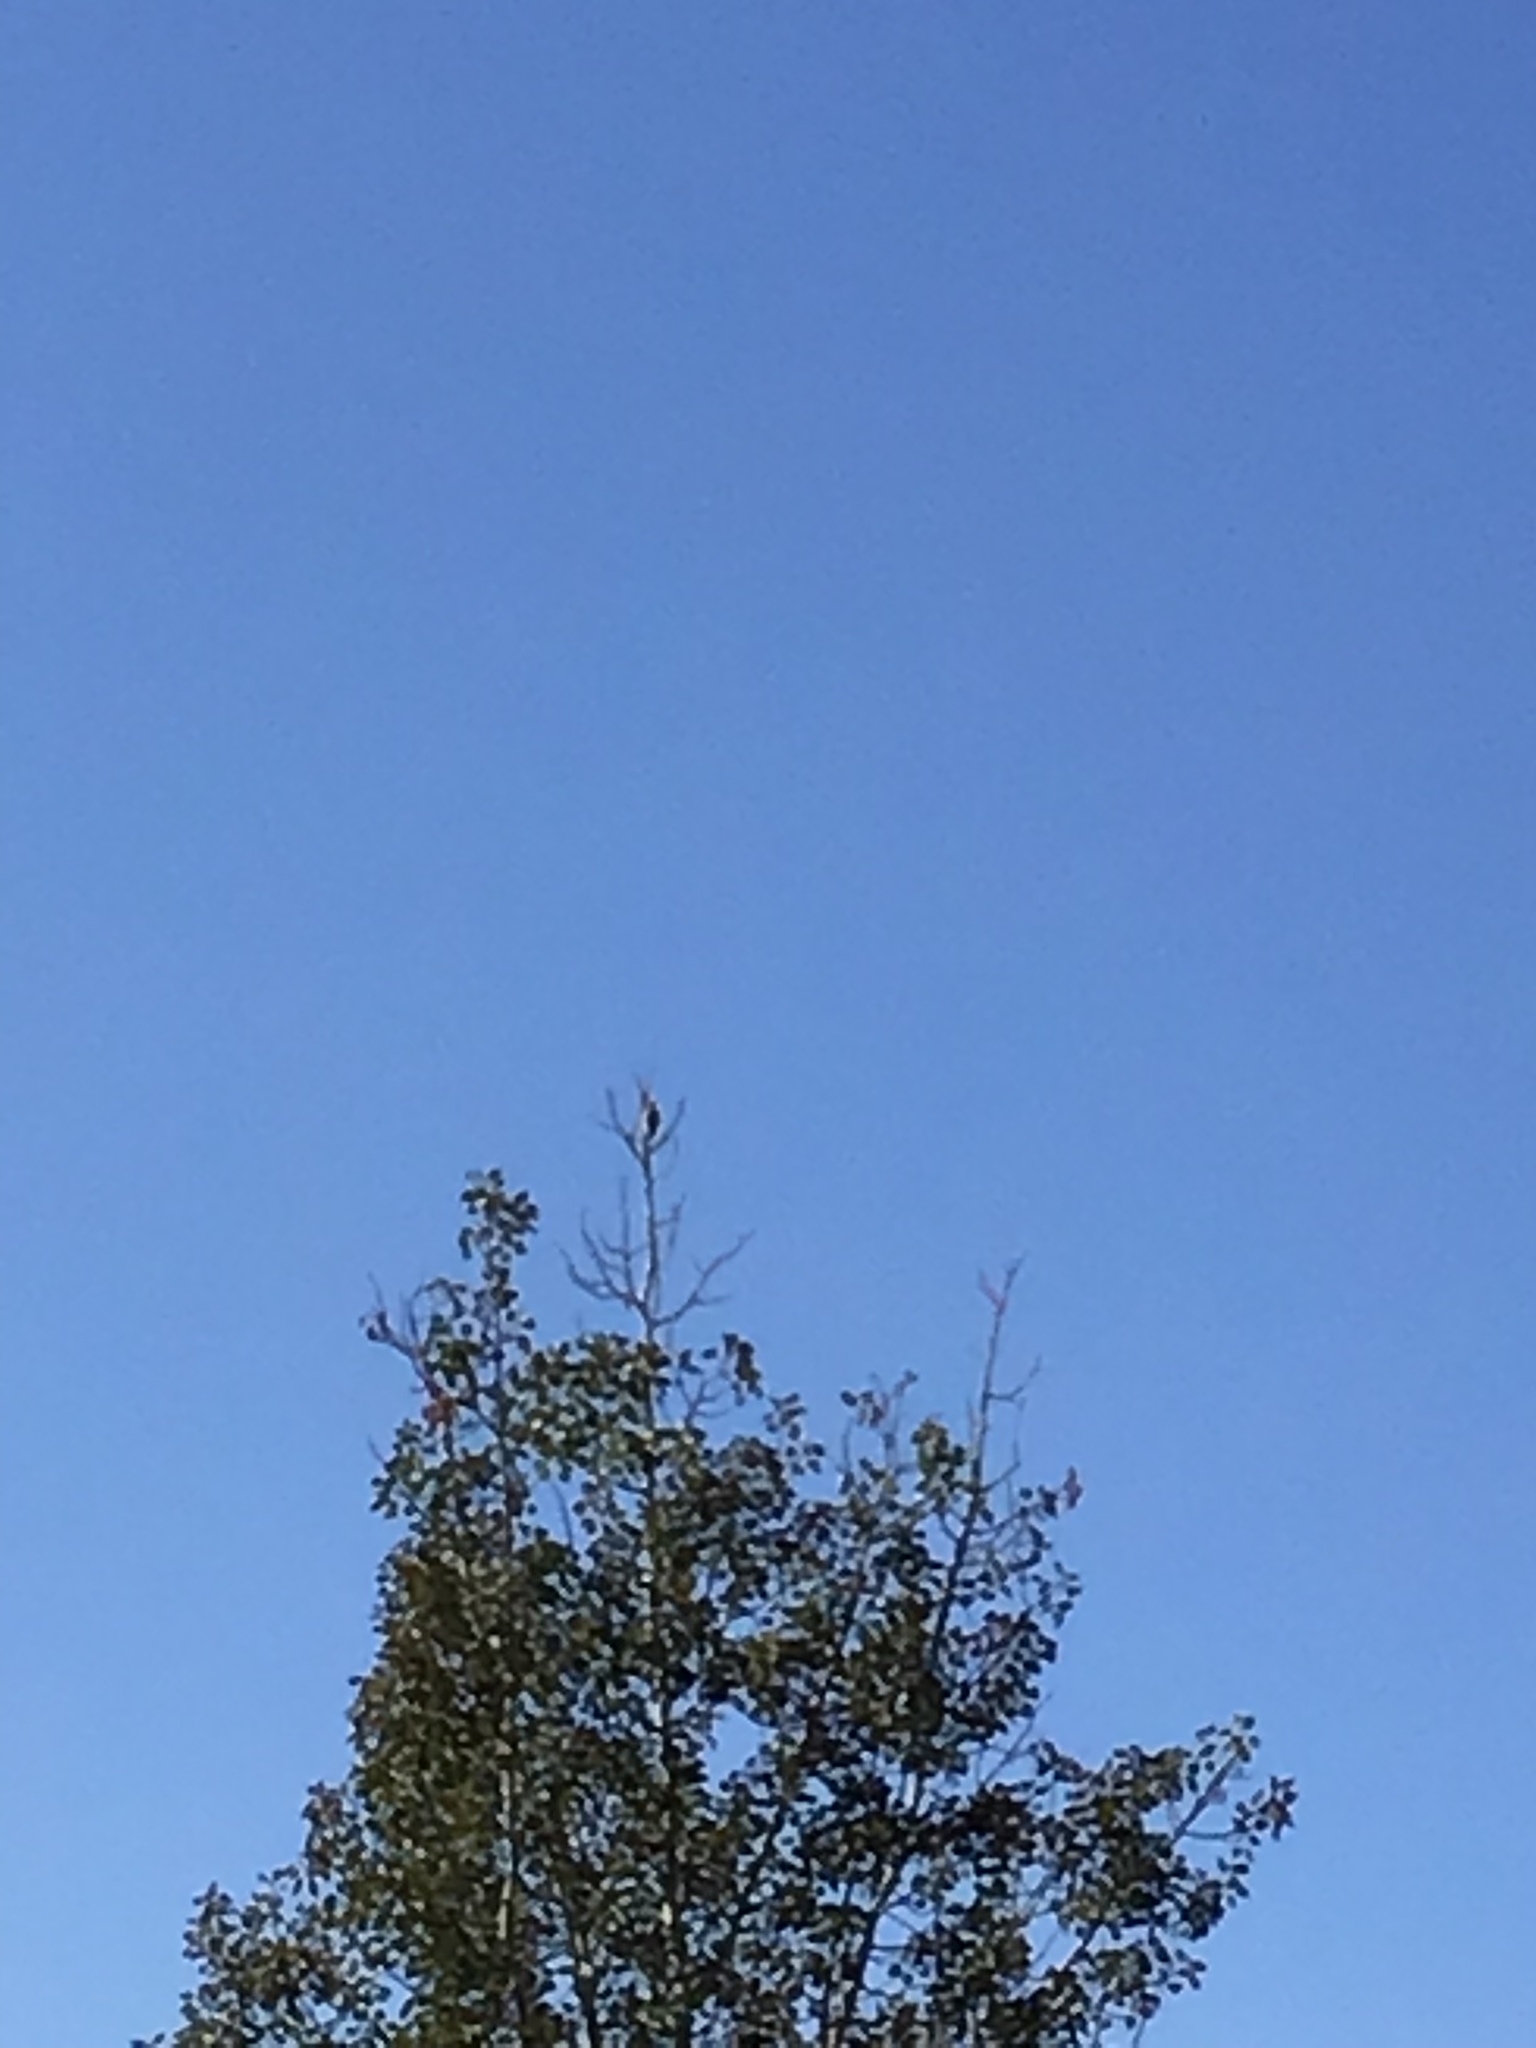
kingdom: Animalia
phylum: Chordata
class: Aves
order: Piciformes
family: Picidae
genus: Dryobates
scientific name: Dryobates pubescens
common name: Downy woodpecker
